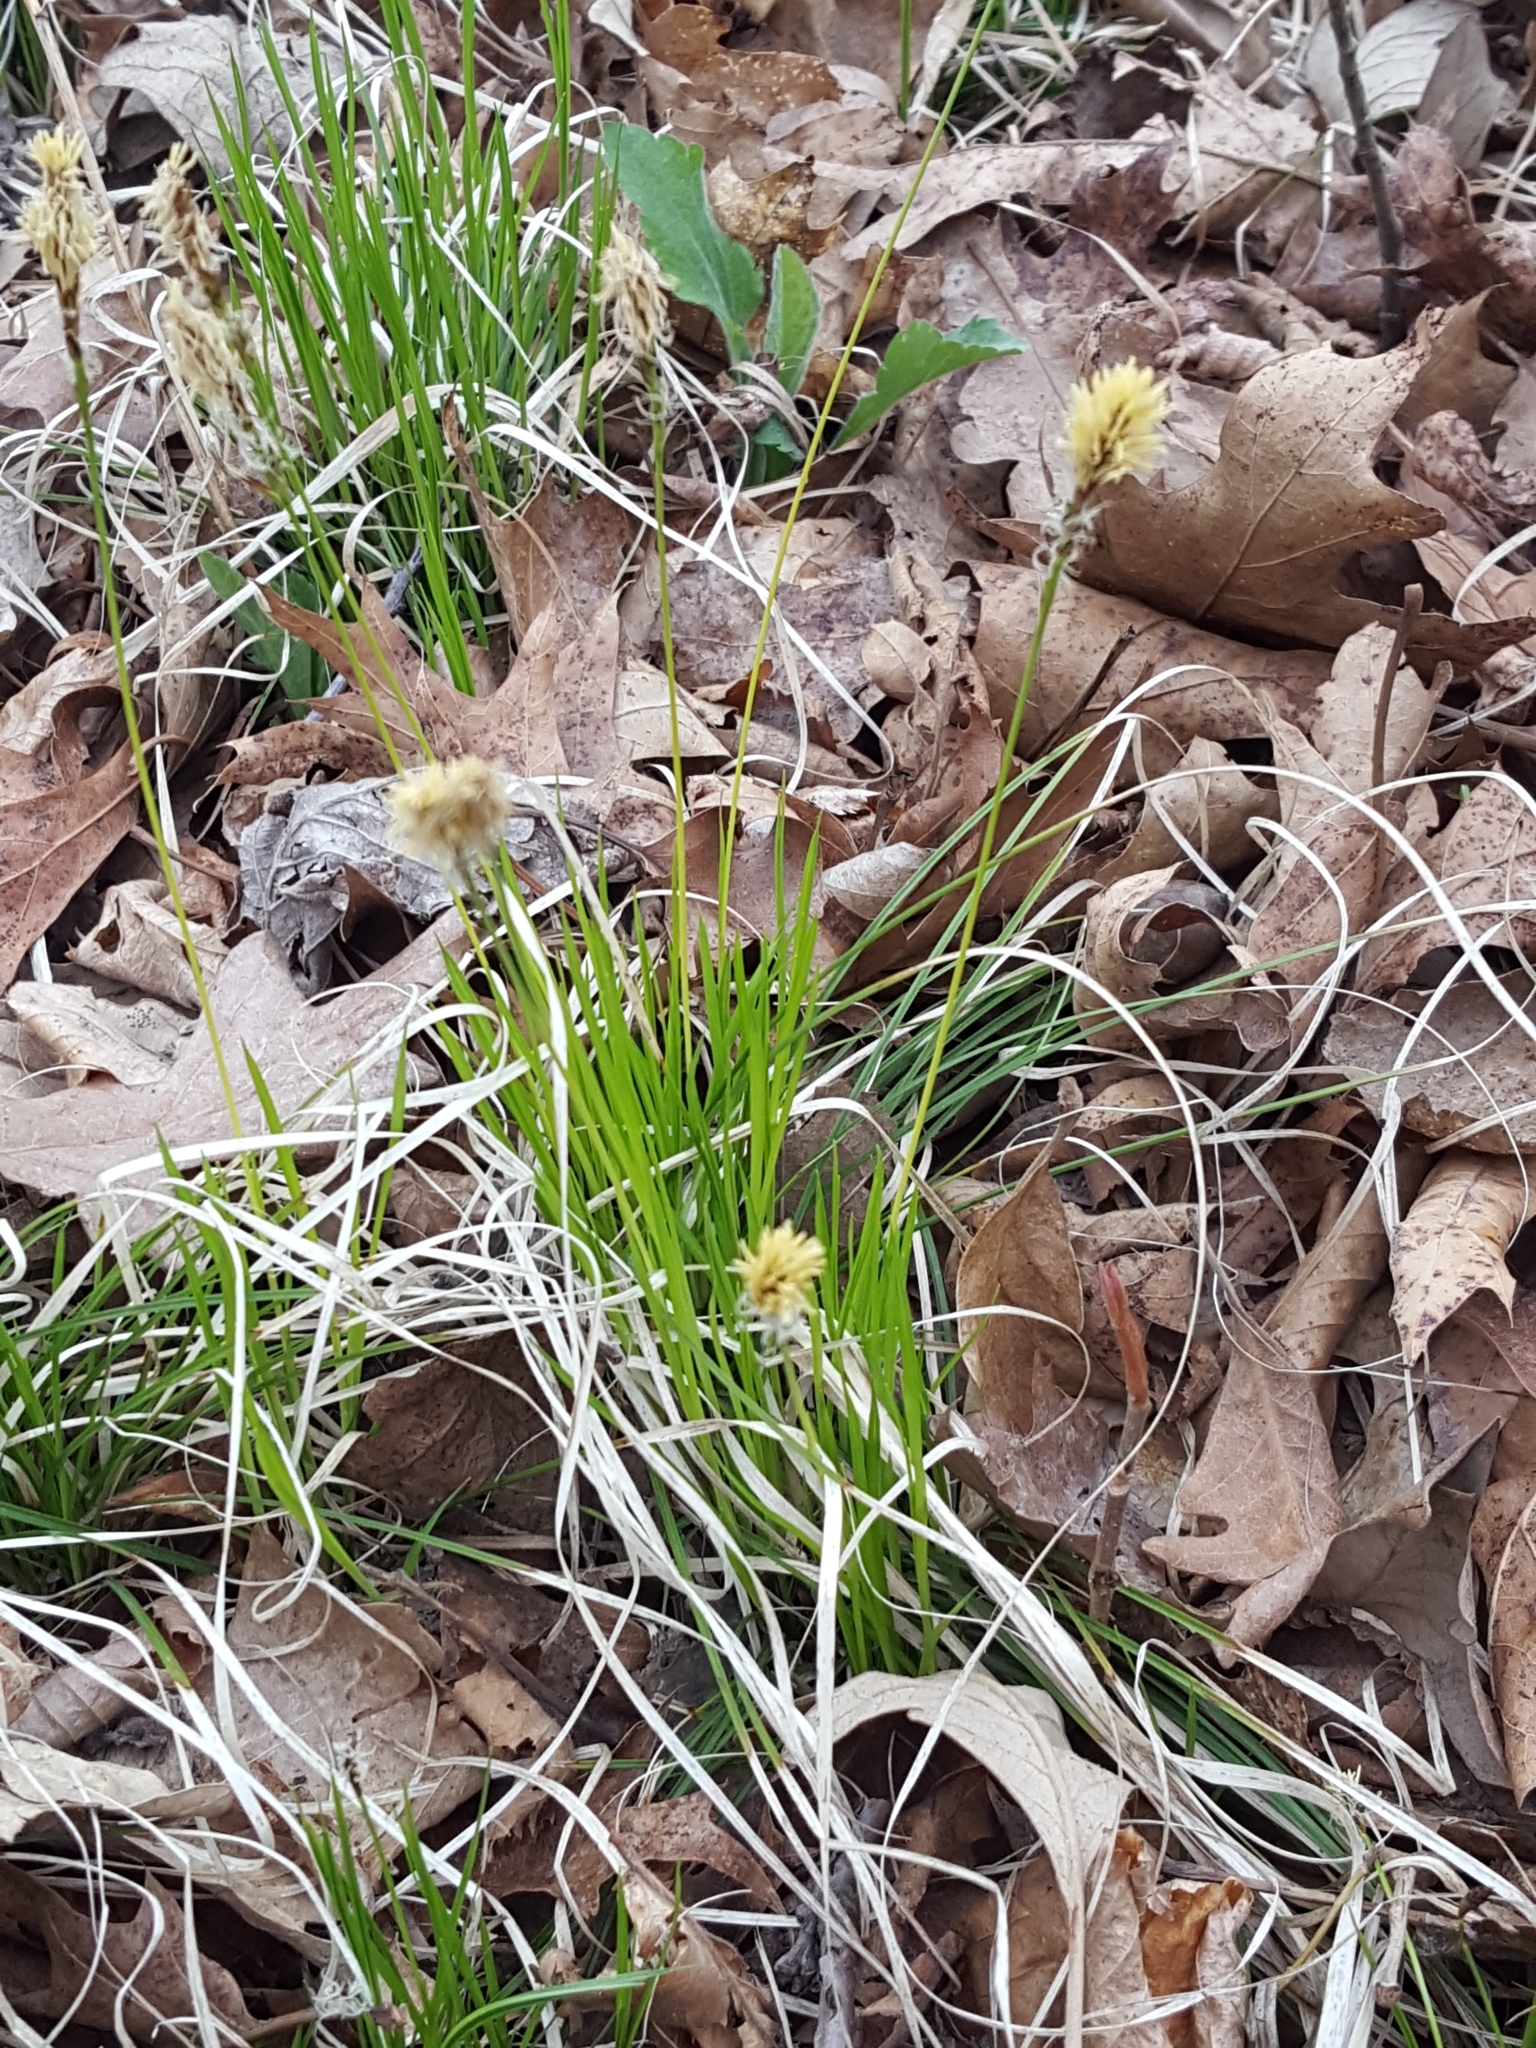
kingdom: Plantae
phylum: Tracheophyta
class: Liliopsida
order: Poales
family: Cyperaceae
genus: Carex
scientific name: Carex pensylvanica
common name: Common oak sedge
